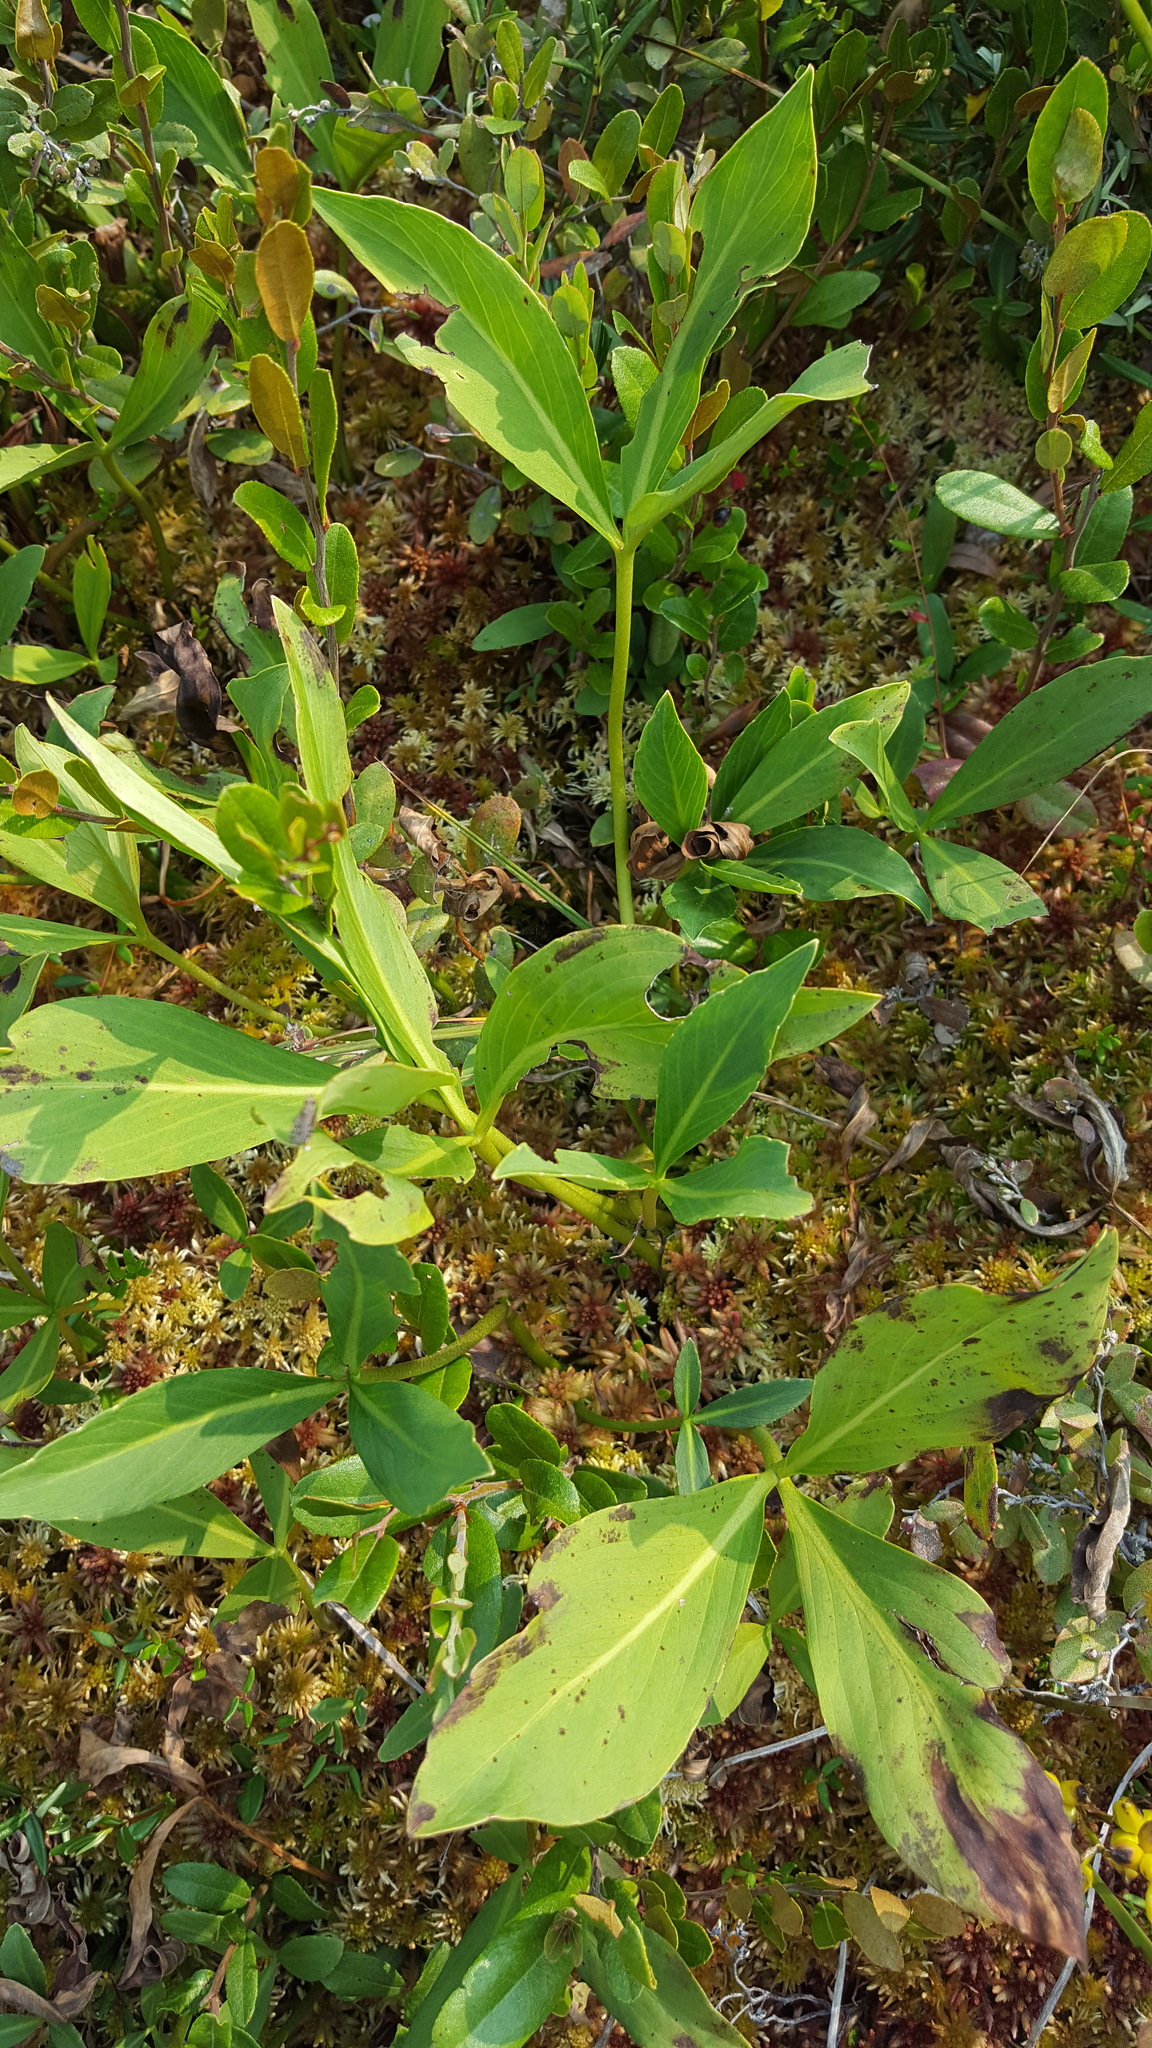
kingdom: Plantae
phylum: Tracheophyta
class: Magnoliopsida
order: Asterales
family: Menyanthaceae
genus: Menyanthes
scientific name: Menyanthes trifoliata
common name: Bogbean
